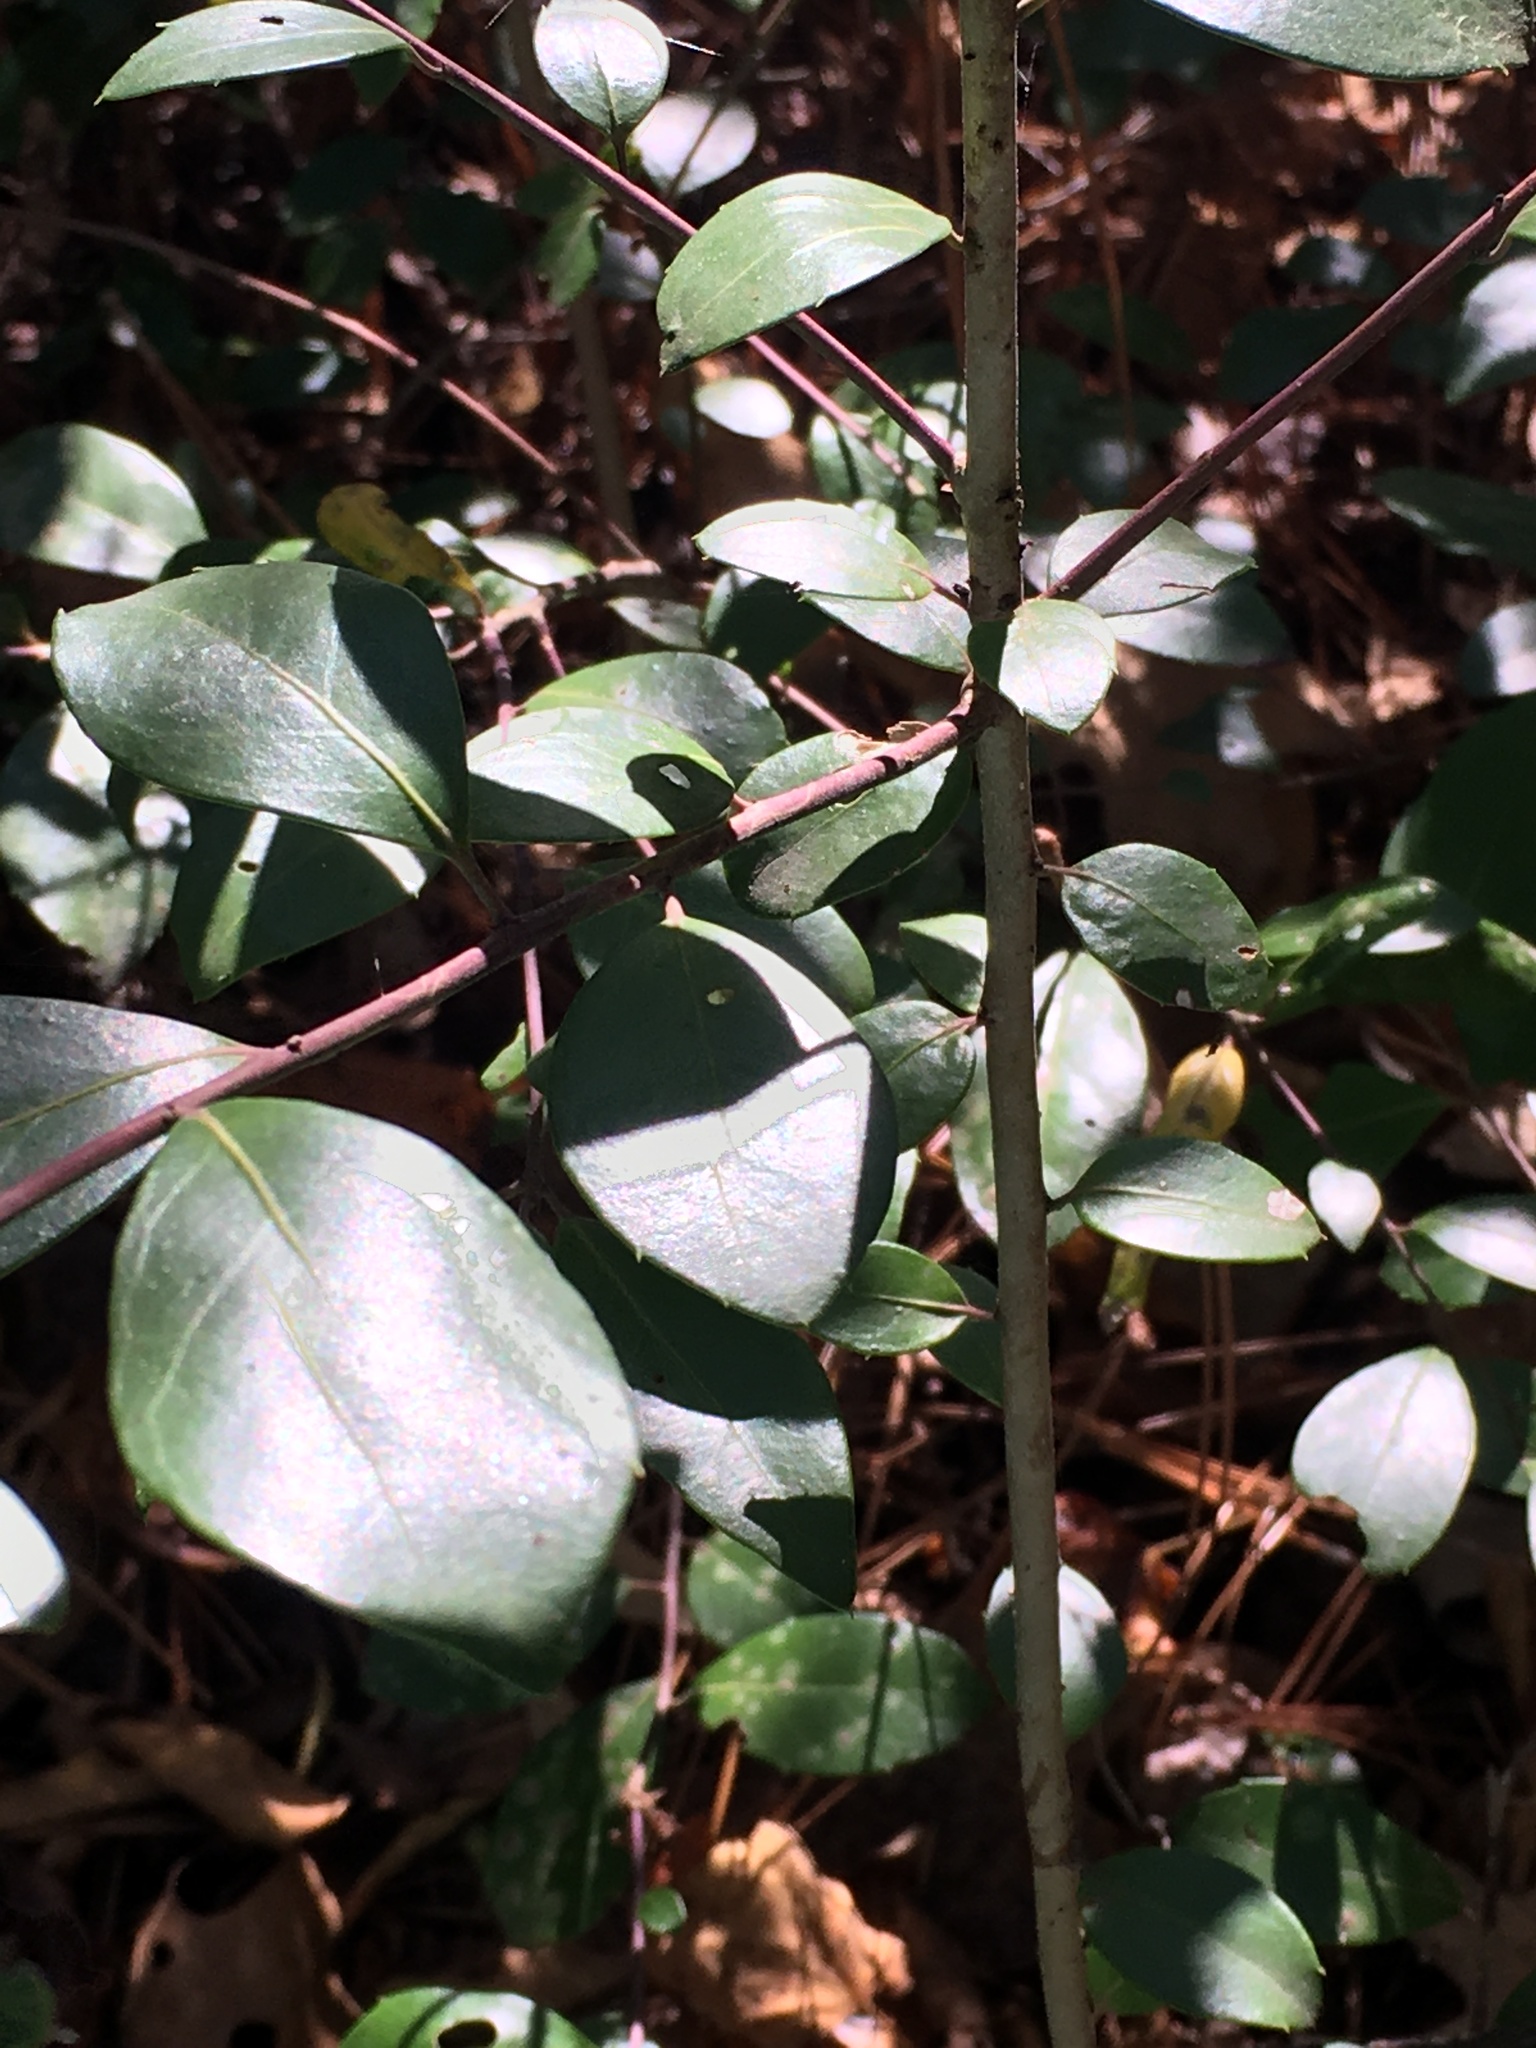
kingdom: Plantae
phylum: Tracheophyta
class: Magnoliopsida
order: Aquifoliales
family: Aquifoliaceae
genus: Ilex
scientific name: Ilex coriacea
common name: Sweet gallberry
